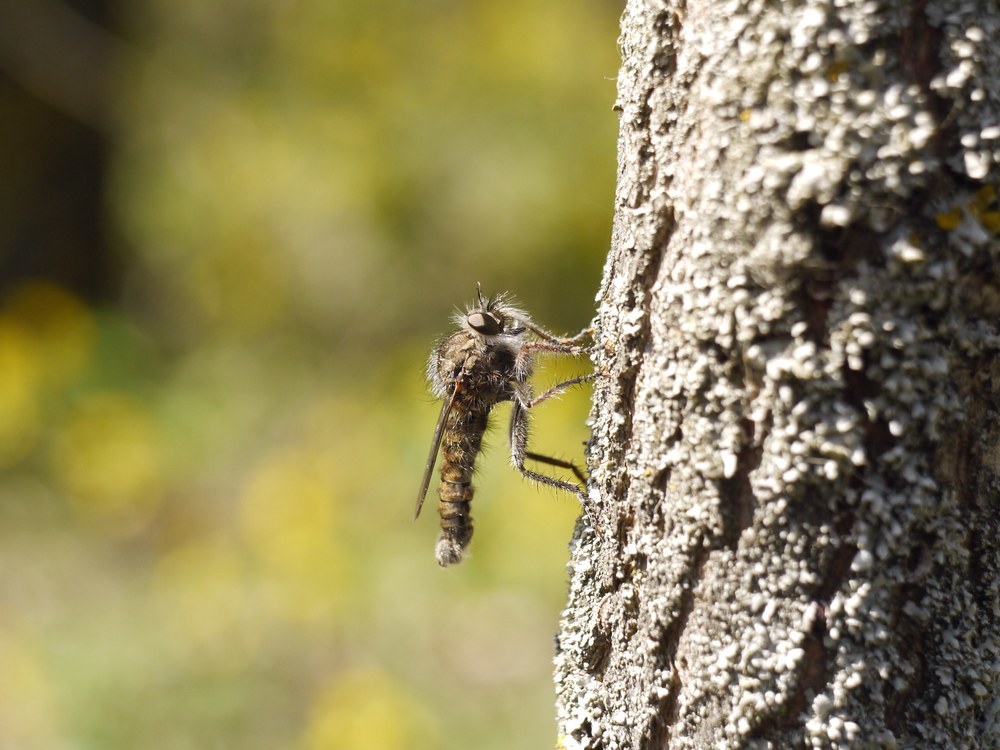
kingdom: Animalia
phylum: Arthropoda
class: Insecta
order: Diptera
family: Asilidae
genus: Erax
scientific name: Erax crassicauda
